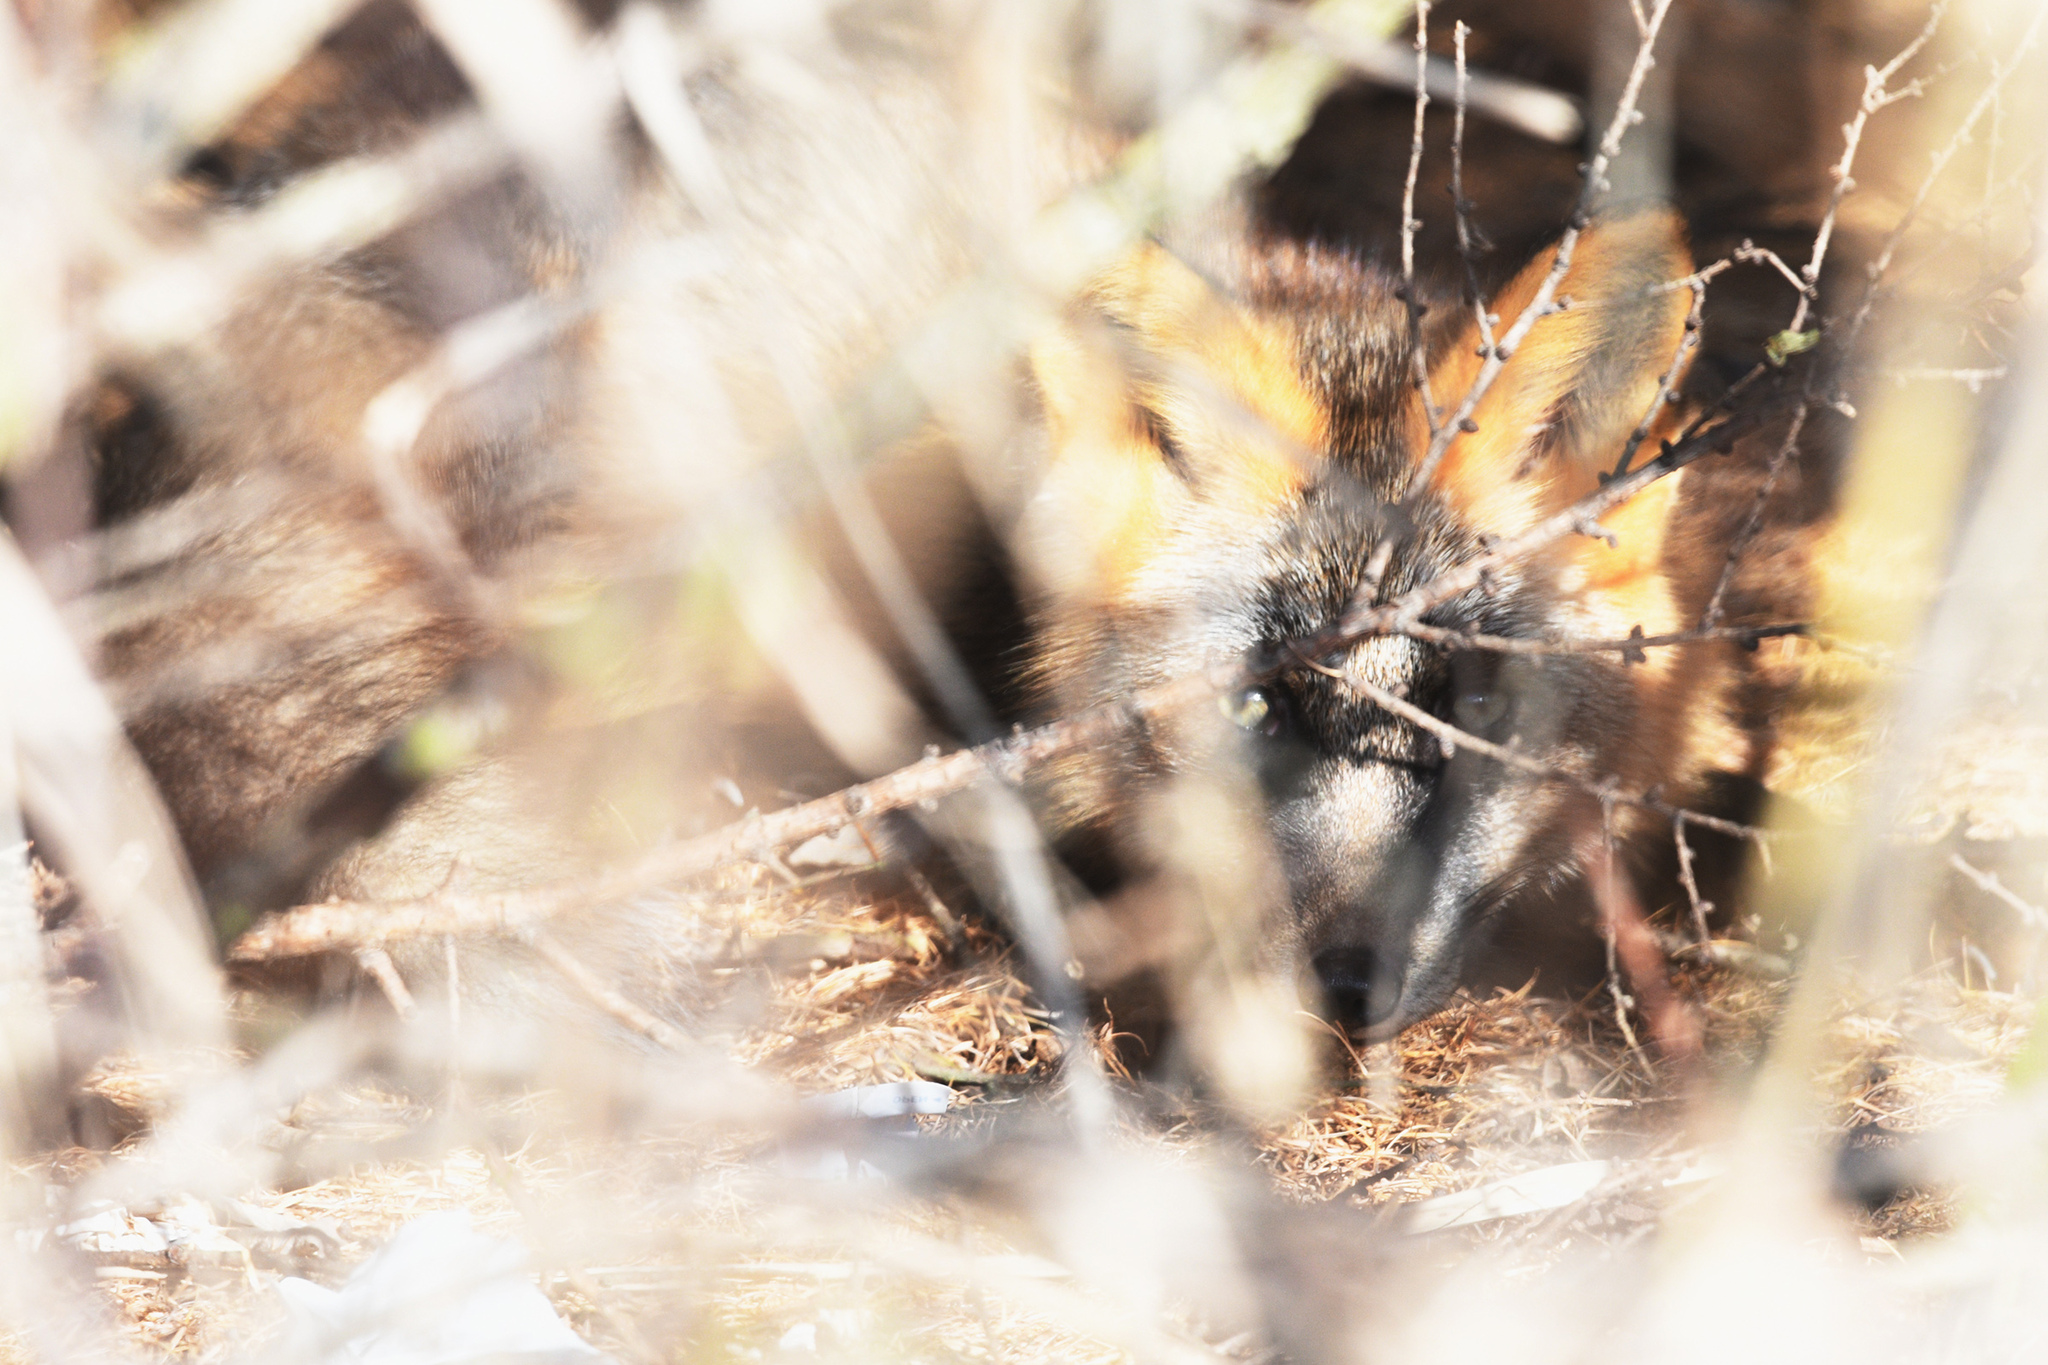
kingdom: Animalia
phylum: Chordata
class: Mammalia
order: Carnivora
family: Canidae
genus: Vulpes
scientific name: Vulpes vulpes
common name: Red fox
